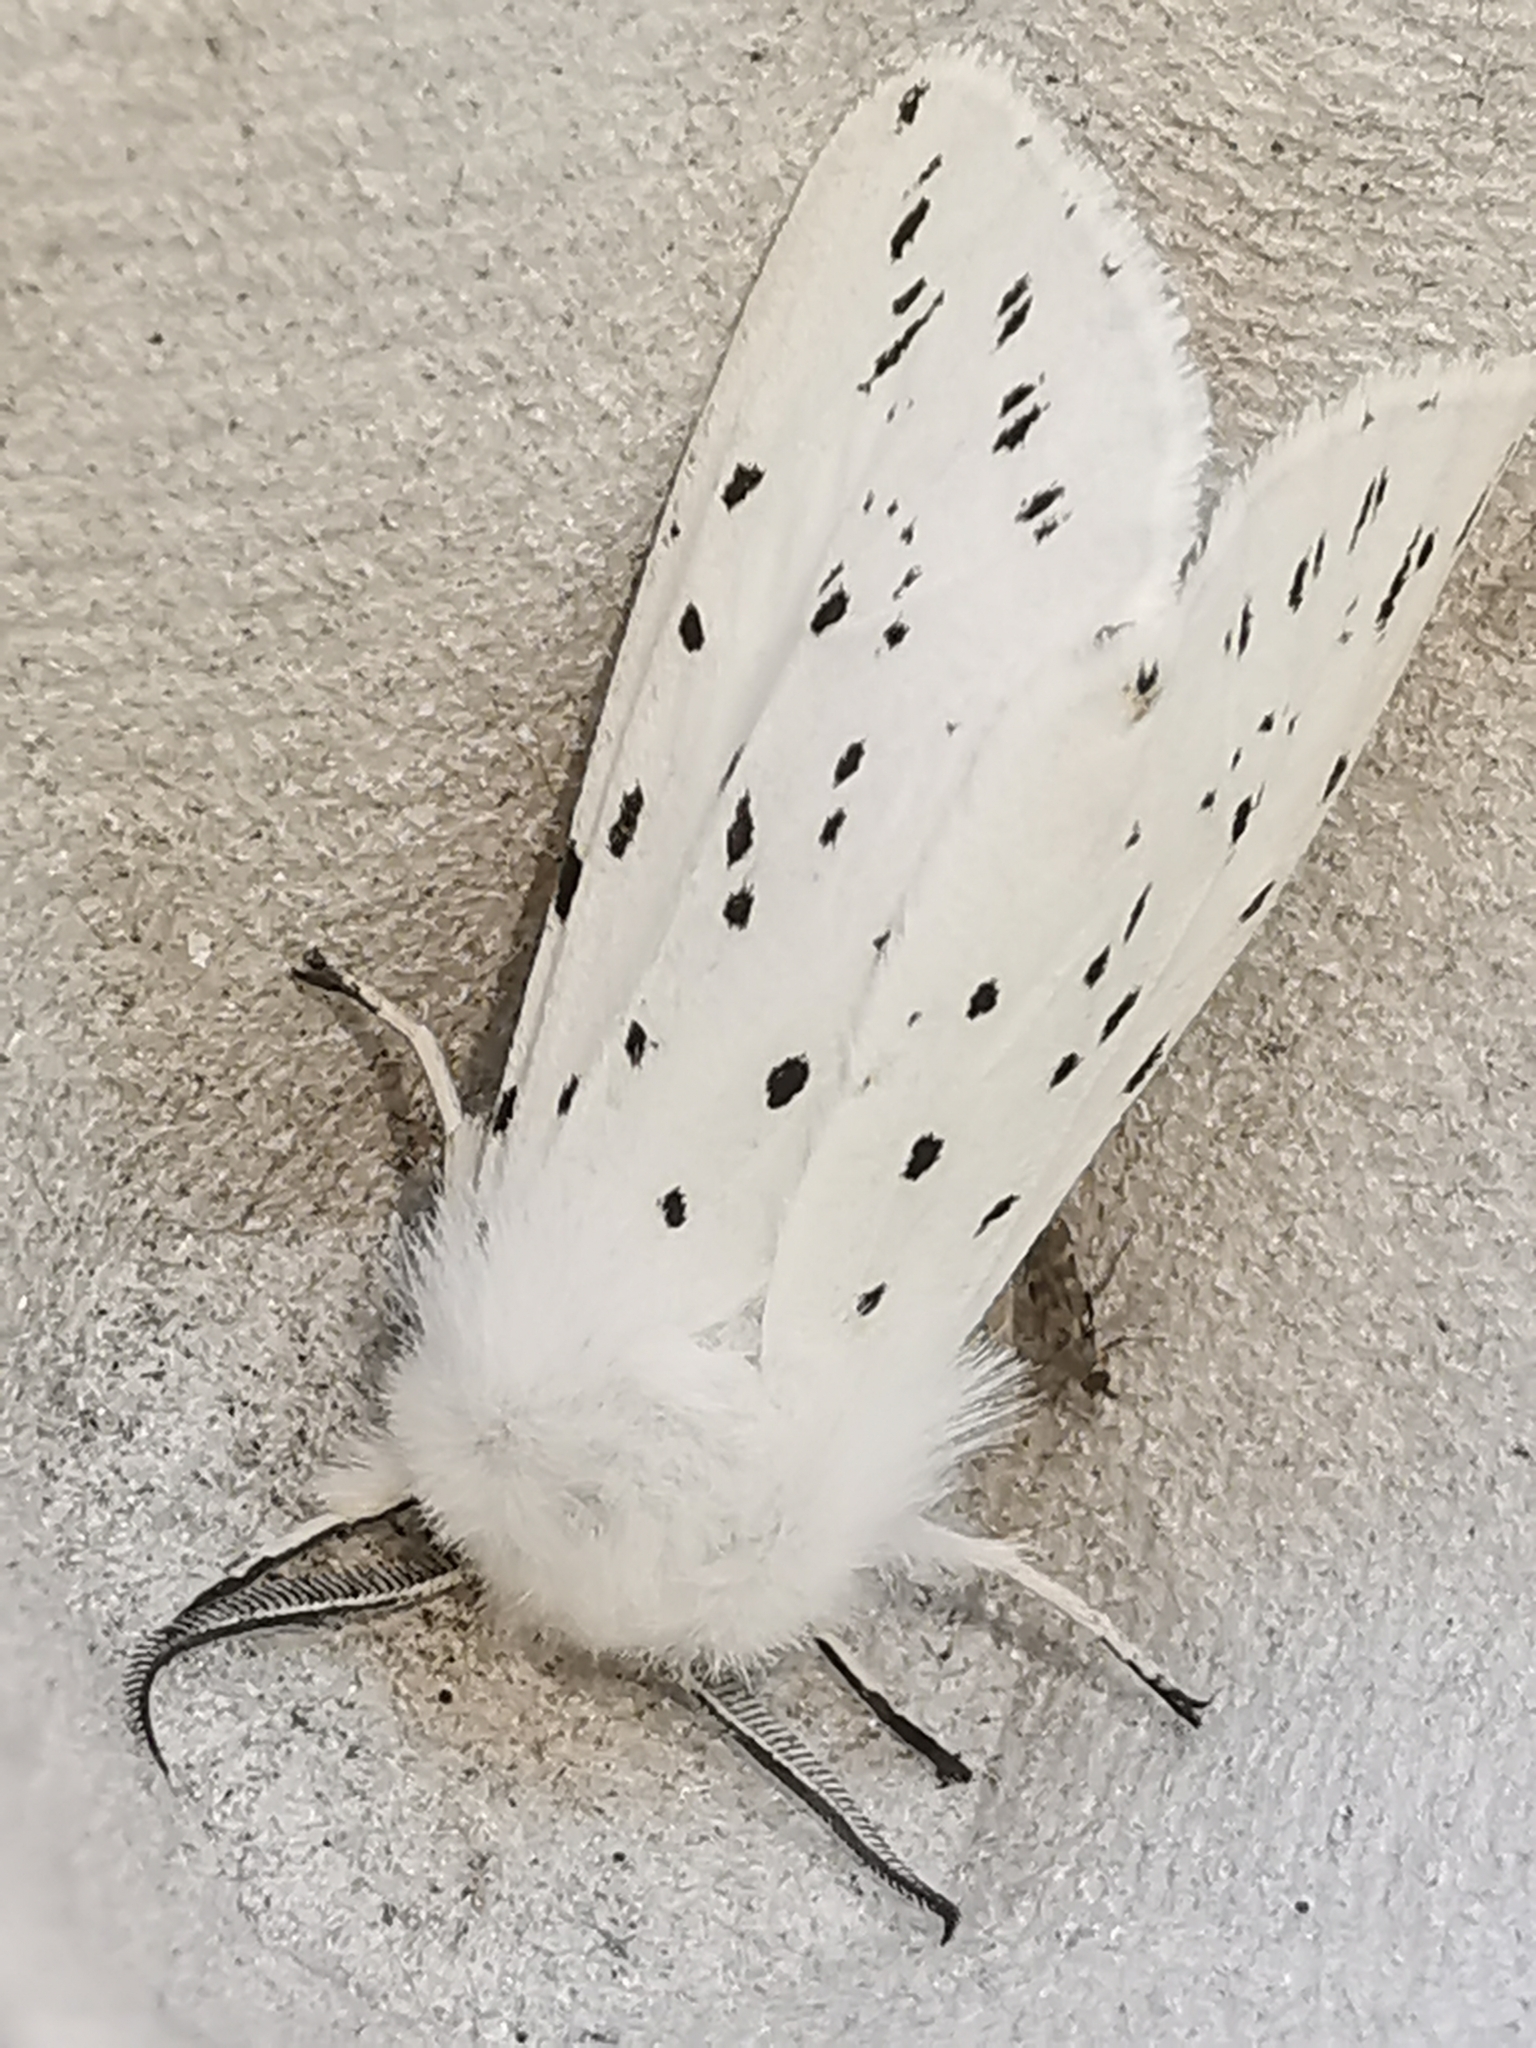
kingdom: Animalia
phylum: Arthropoda
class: Insecta
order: Lepidoptera
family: Erebidae
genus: Spilosoma
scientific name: Spilosoma lubricipeda
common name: White ermine
